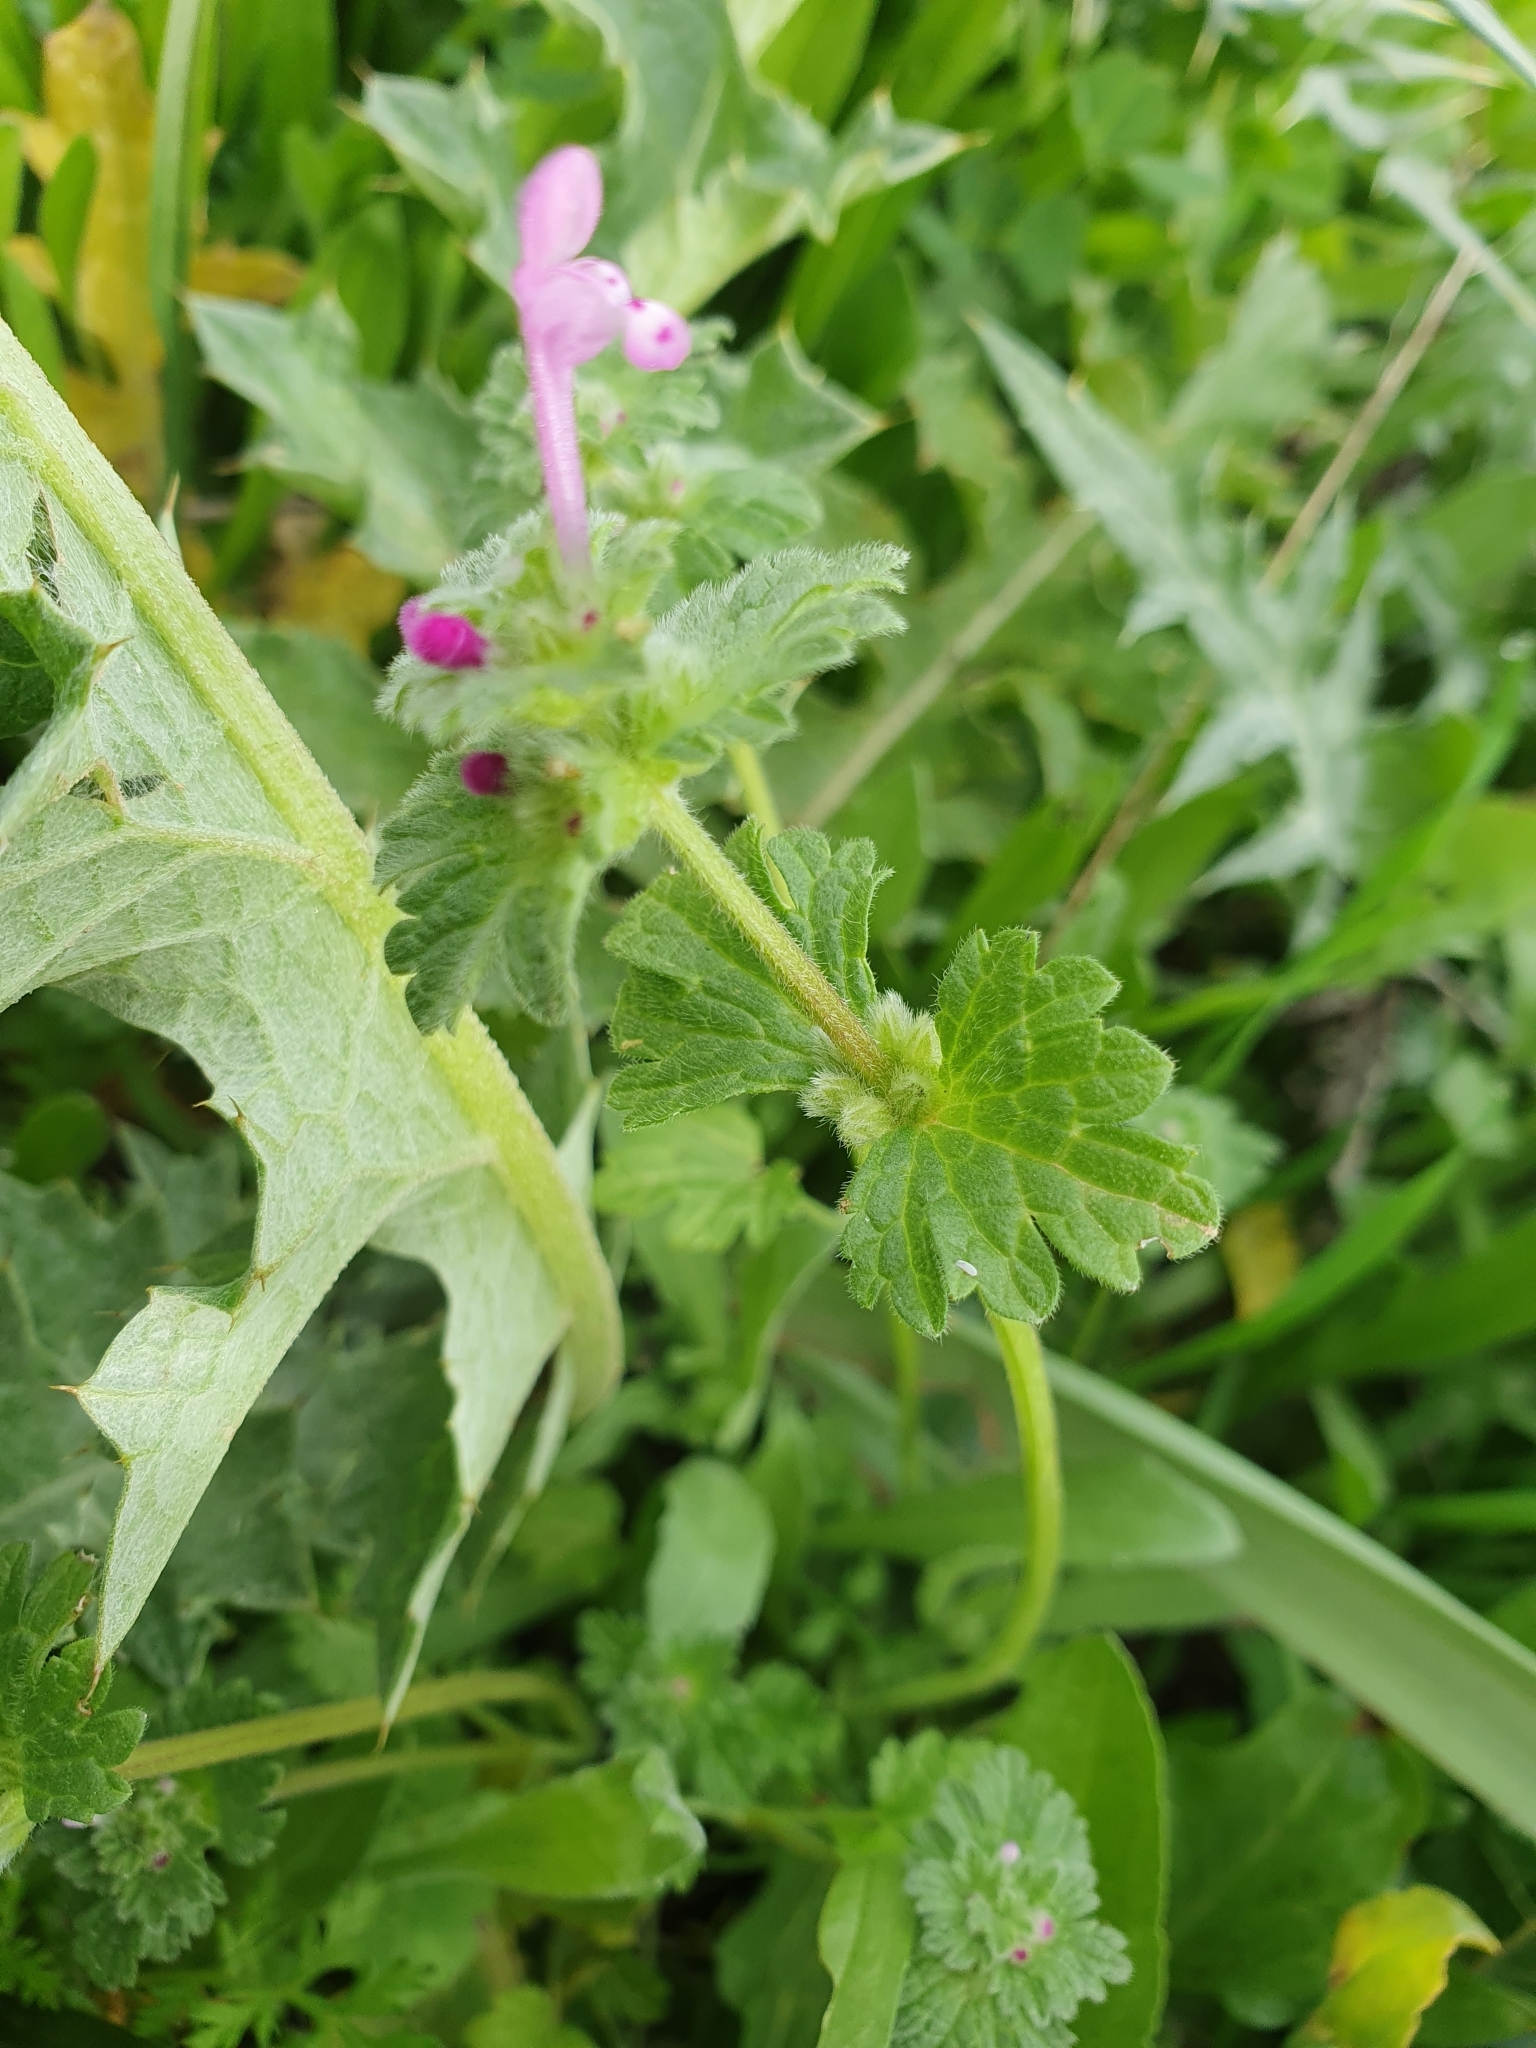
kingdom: Plantae
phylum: Tracheophyta
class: Magnoliopsida
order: Lamiales
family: Lamiaceae
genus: Lamium
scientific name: Lamium amplexicaule
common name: Henbit dead-nettle
